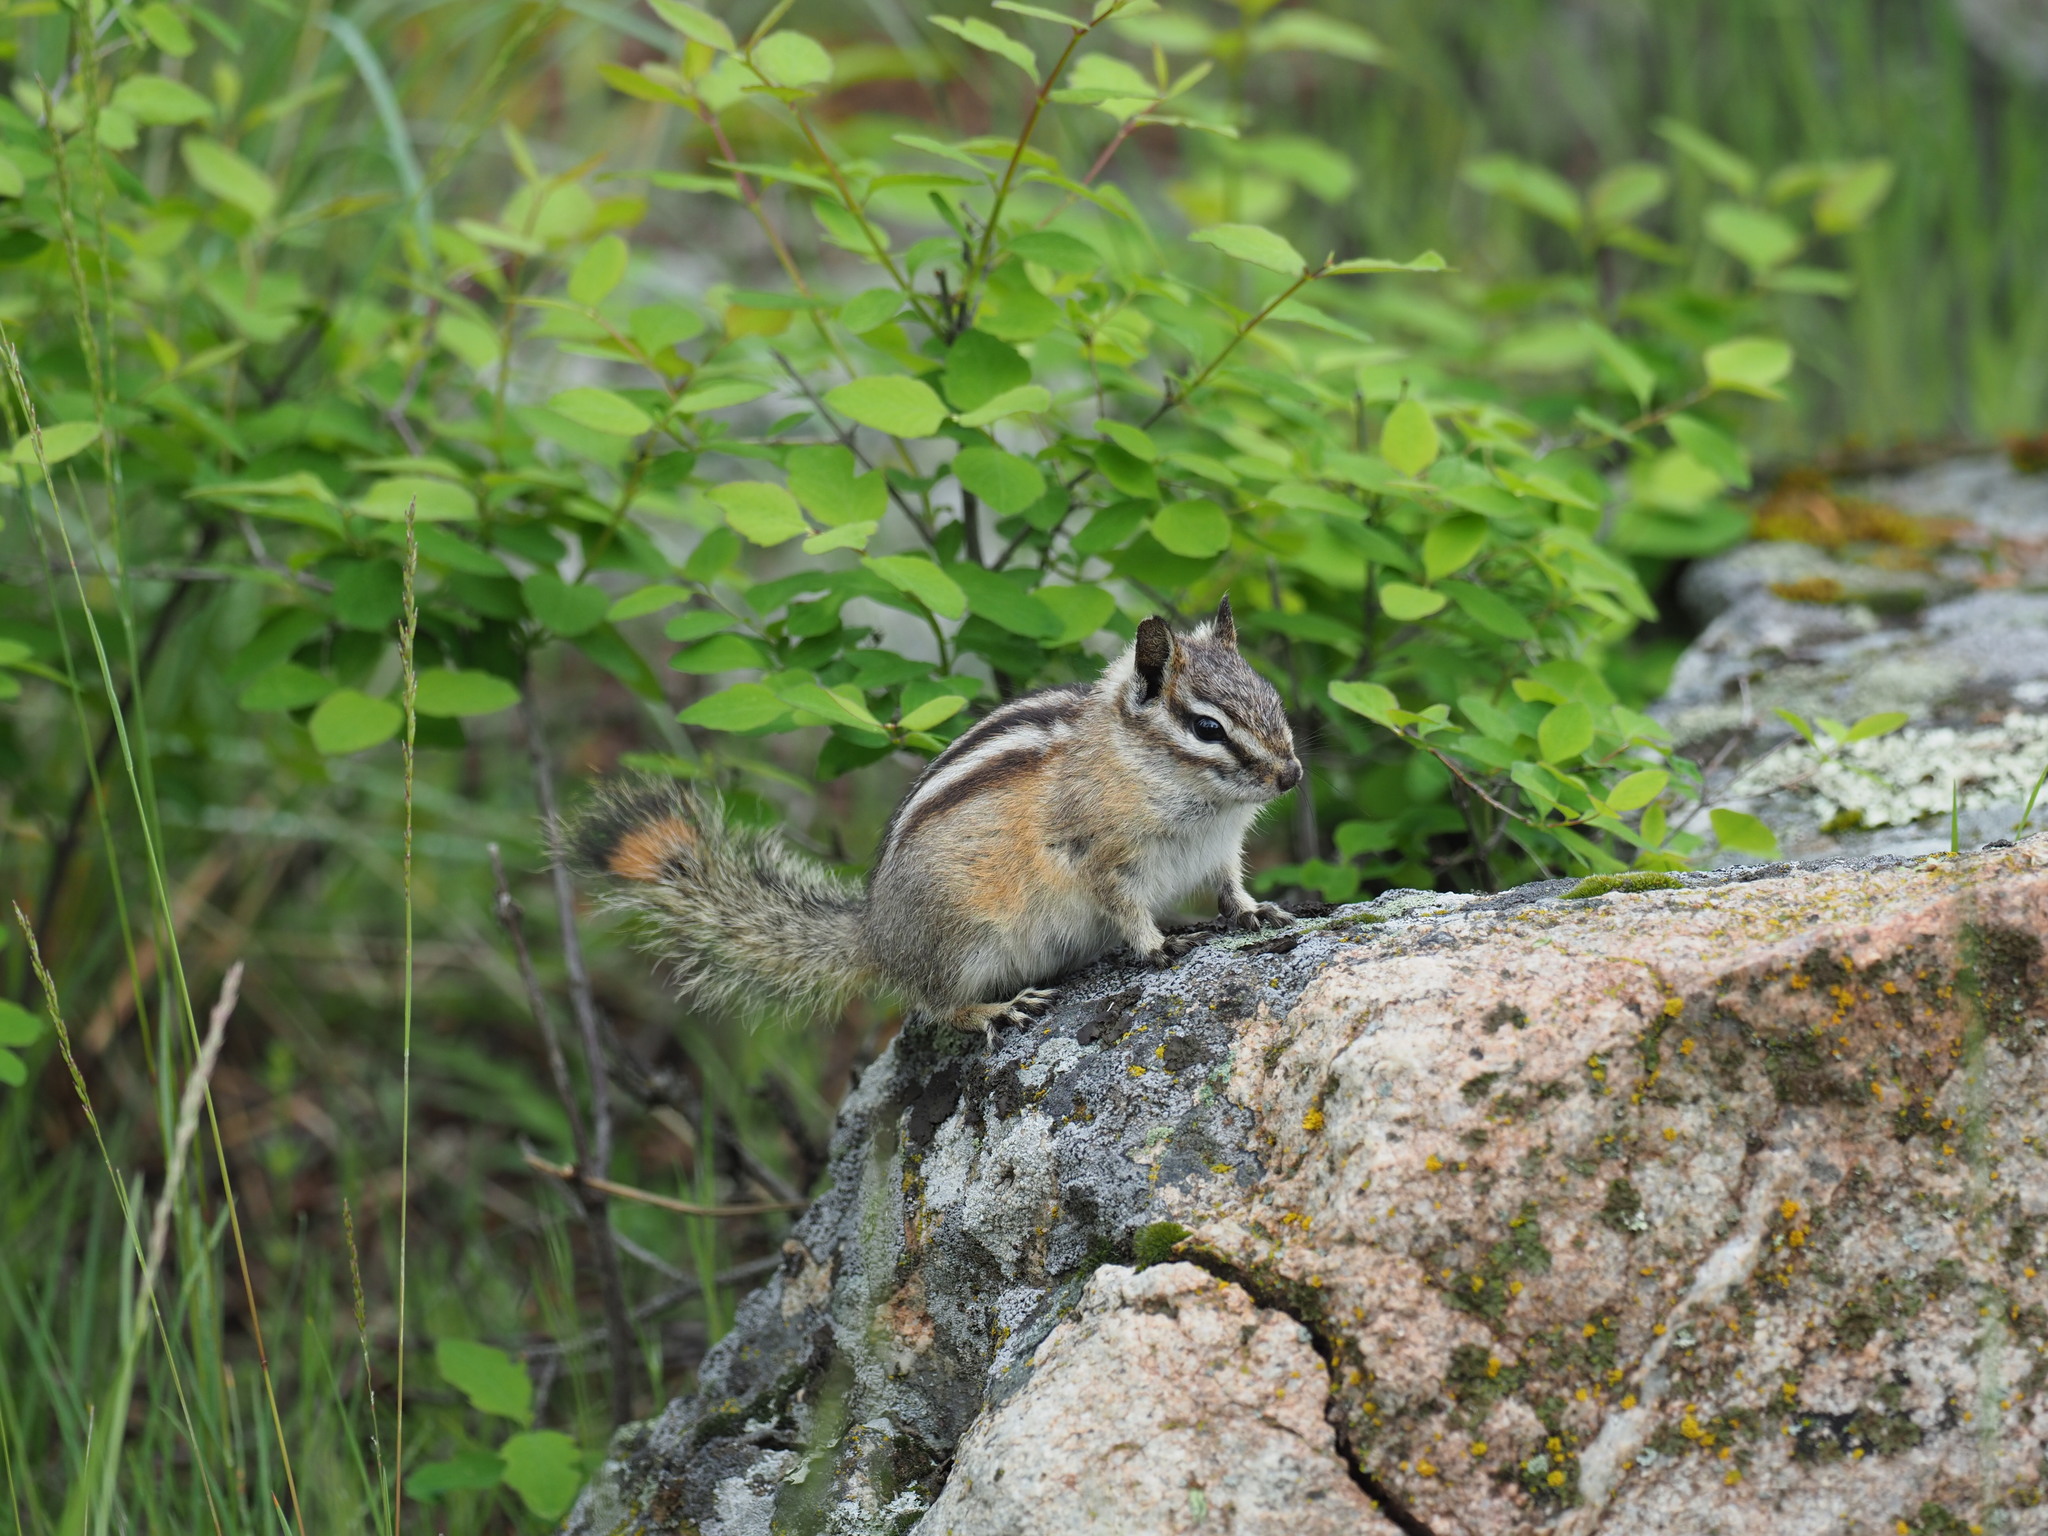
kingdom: Animalia
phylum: Chordata
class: Mammalia
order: Rodentia
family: Sciuridae
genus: Tamias
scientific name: Tamias amoenus
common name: Yellow-pine chipmunk
